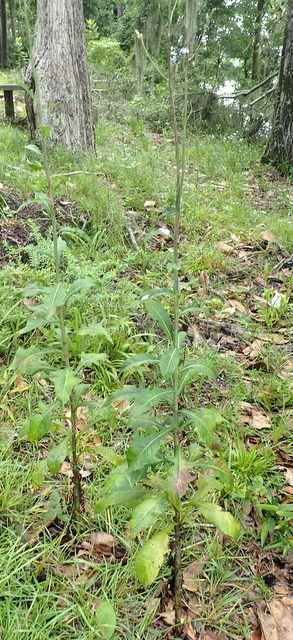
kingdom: Plantae
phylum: Tracheophyta
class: Magnoliopsida
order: Asterales
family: Asteraceae
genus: Lactuca
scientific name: Lactuca floridana
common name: Woodland lettuce
